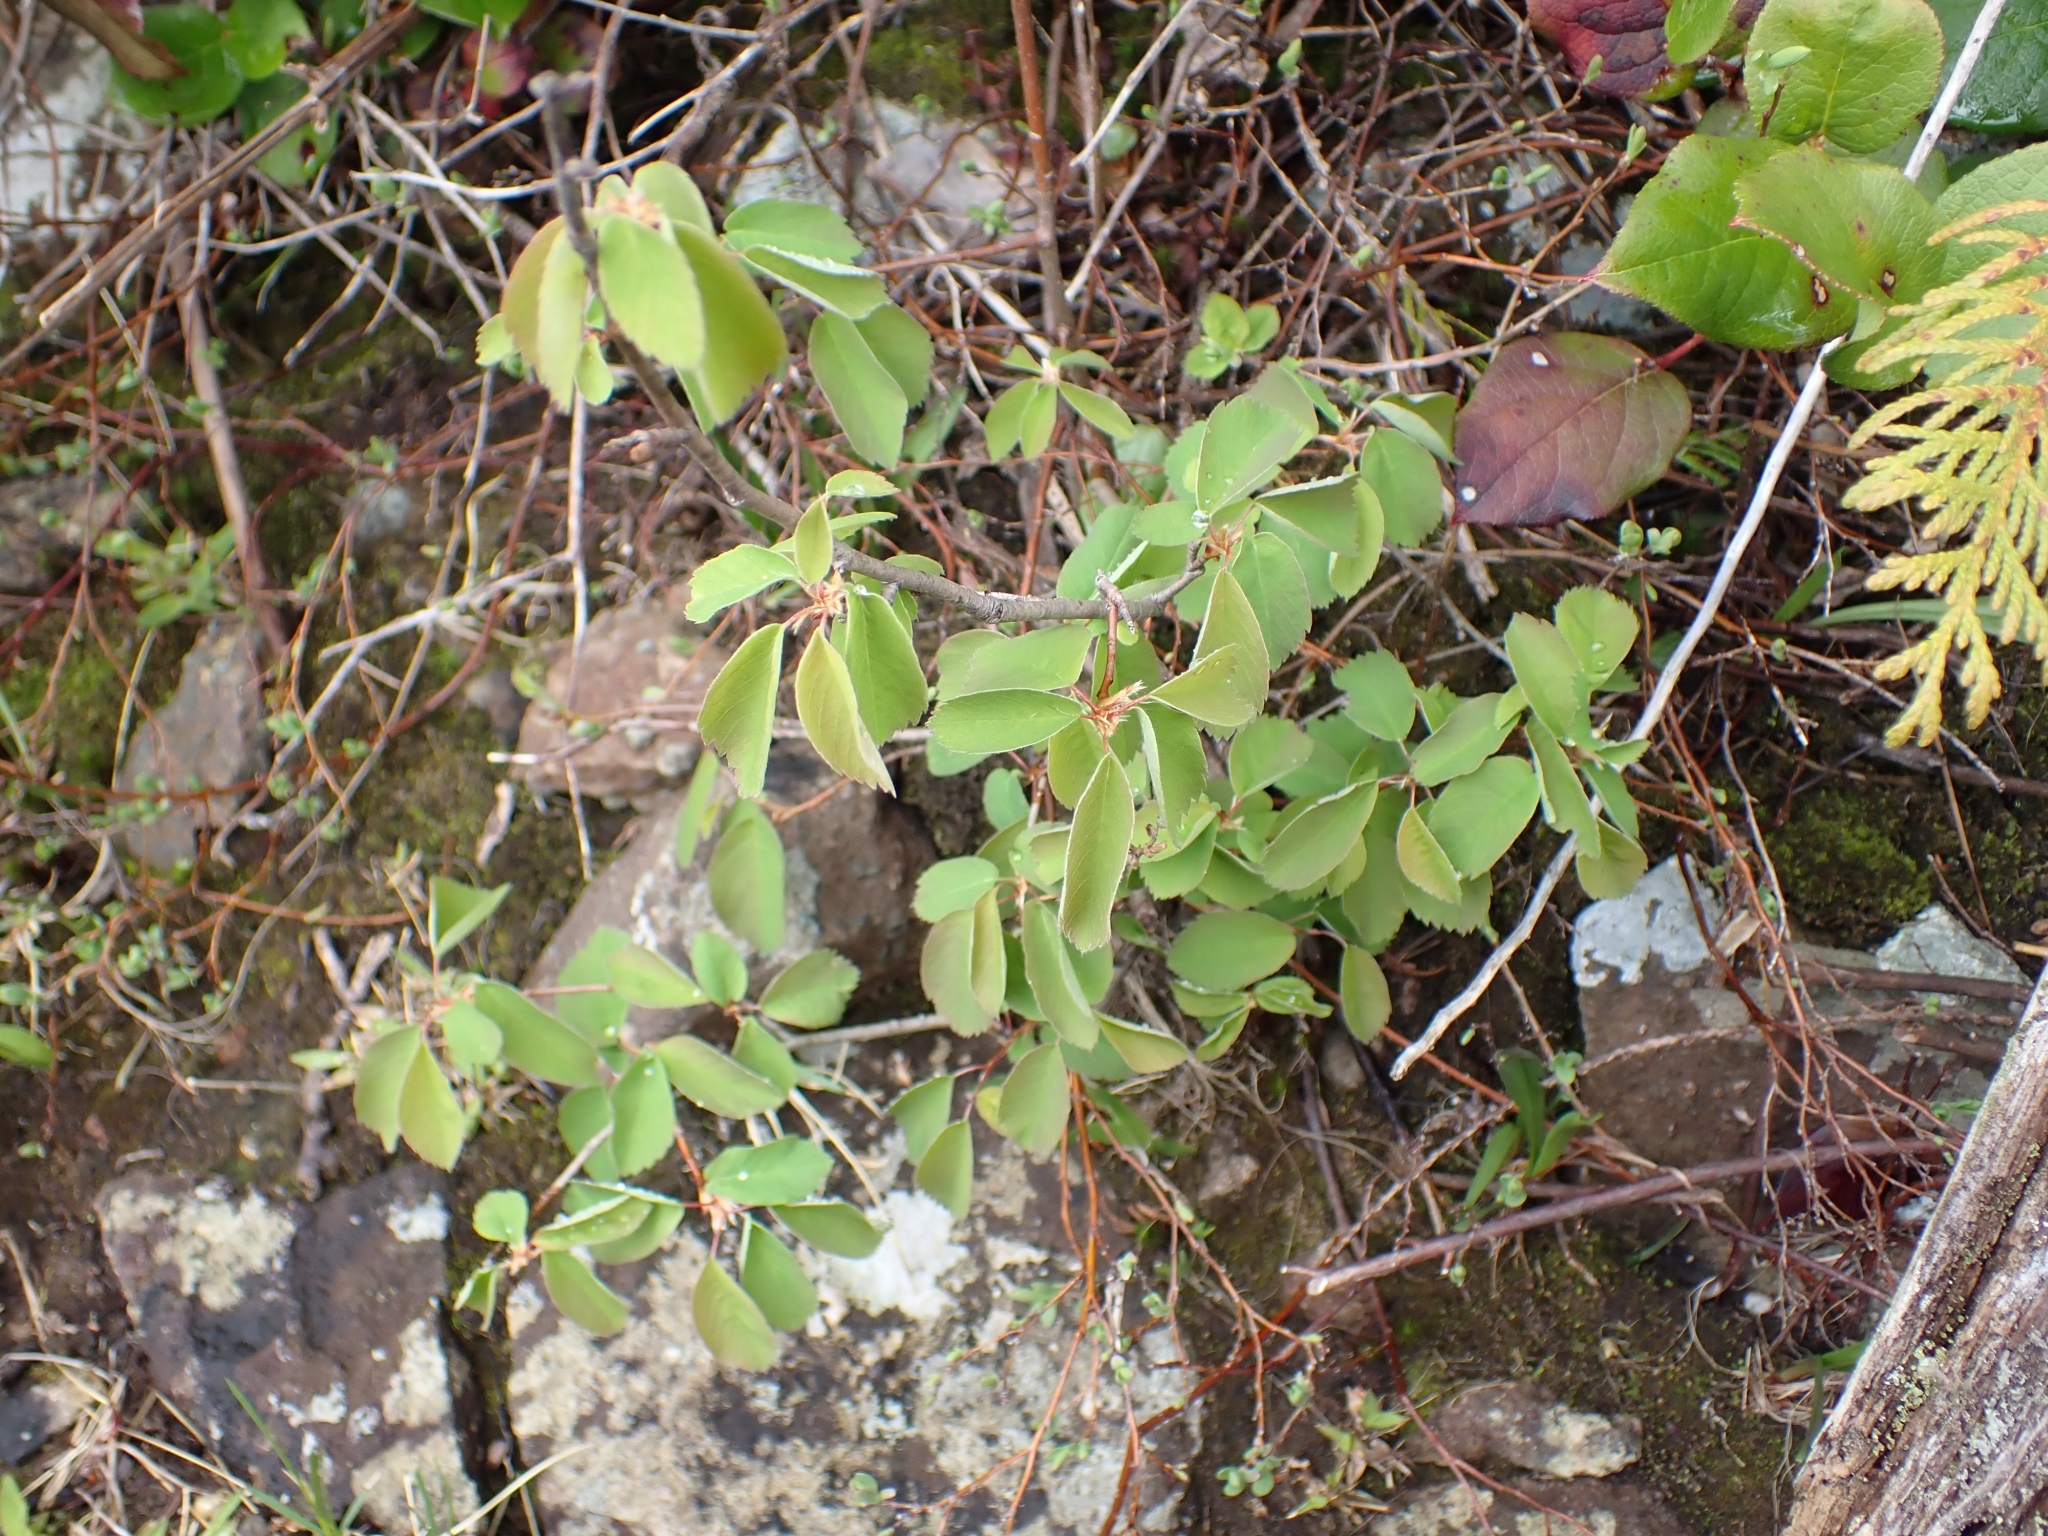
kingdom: Plantae
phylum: Tracheophyta
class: Magnoliopsida
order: Rosales
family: Rosaceae
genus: Amelanchier
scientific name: Amelanchier alnifolia
